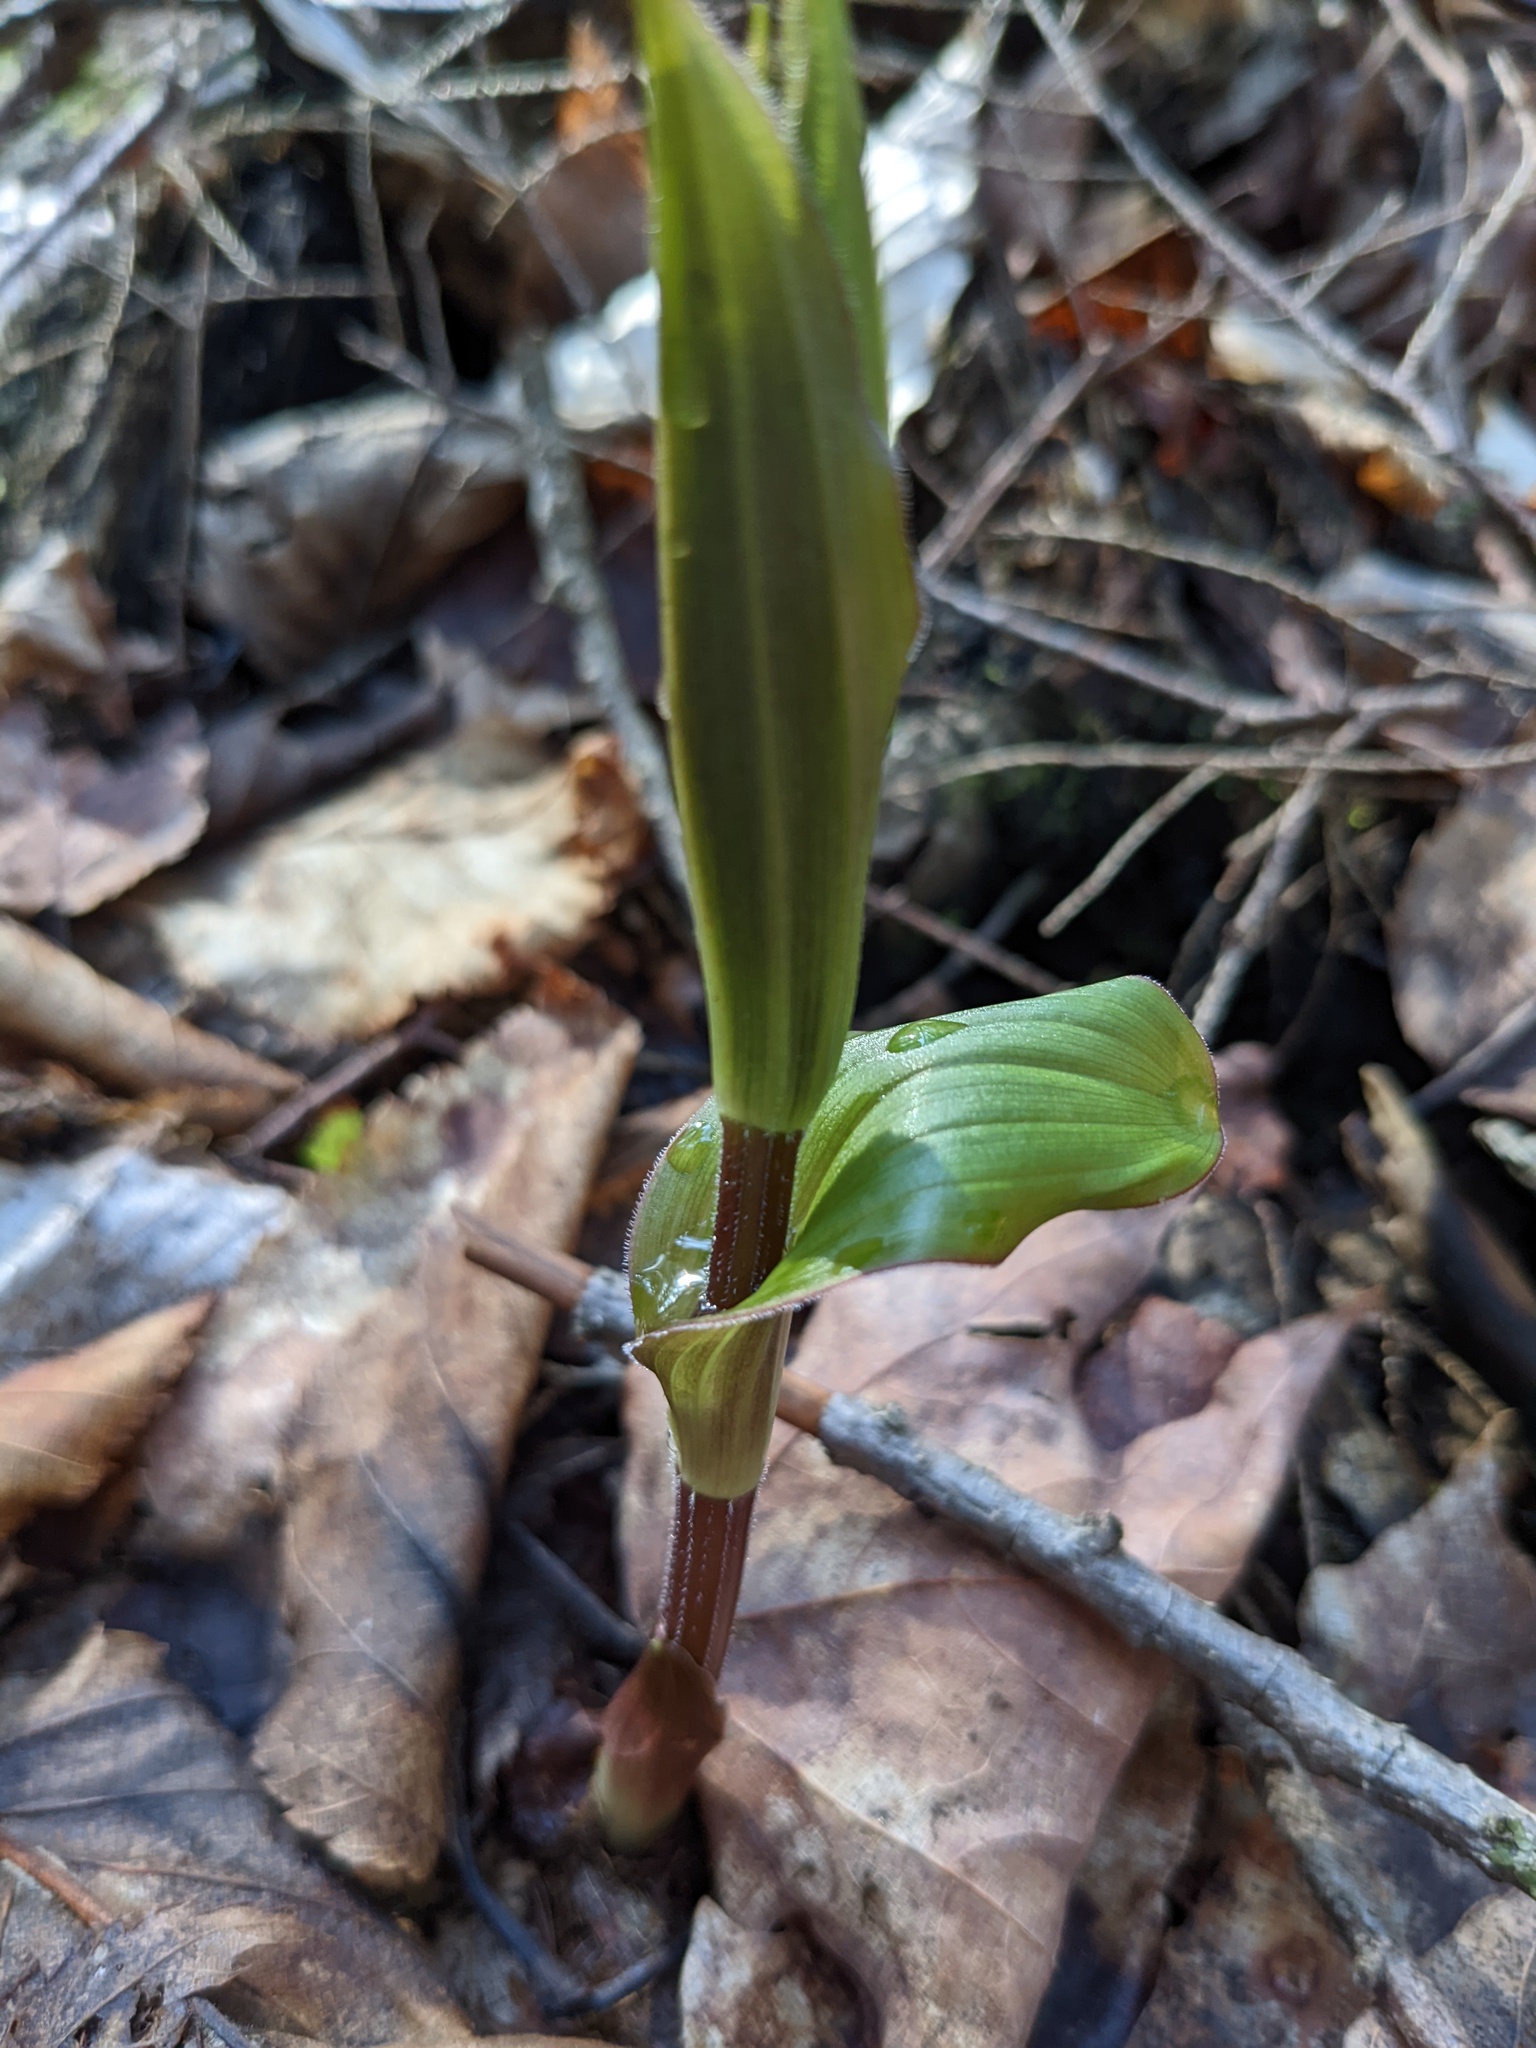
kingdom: Plantae
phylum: Tracheophyta
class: Liliopsida
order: Liliales
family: Liliaceae
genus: Streptopus
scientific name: Streptopus lanceolatus
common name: Rose mandarin
